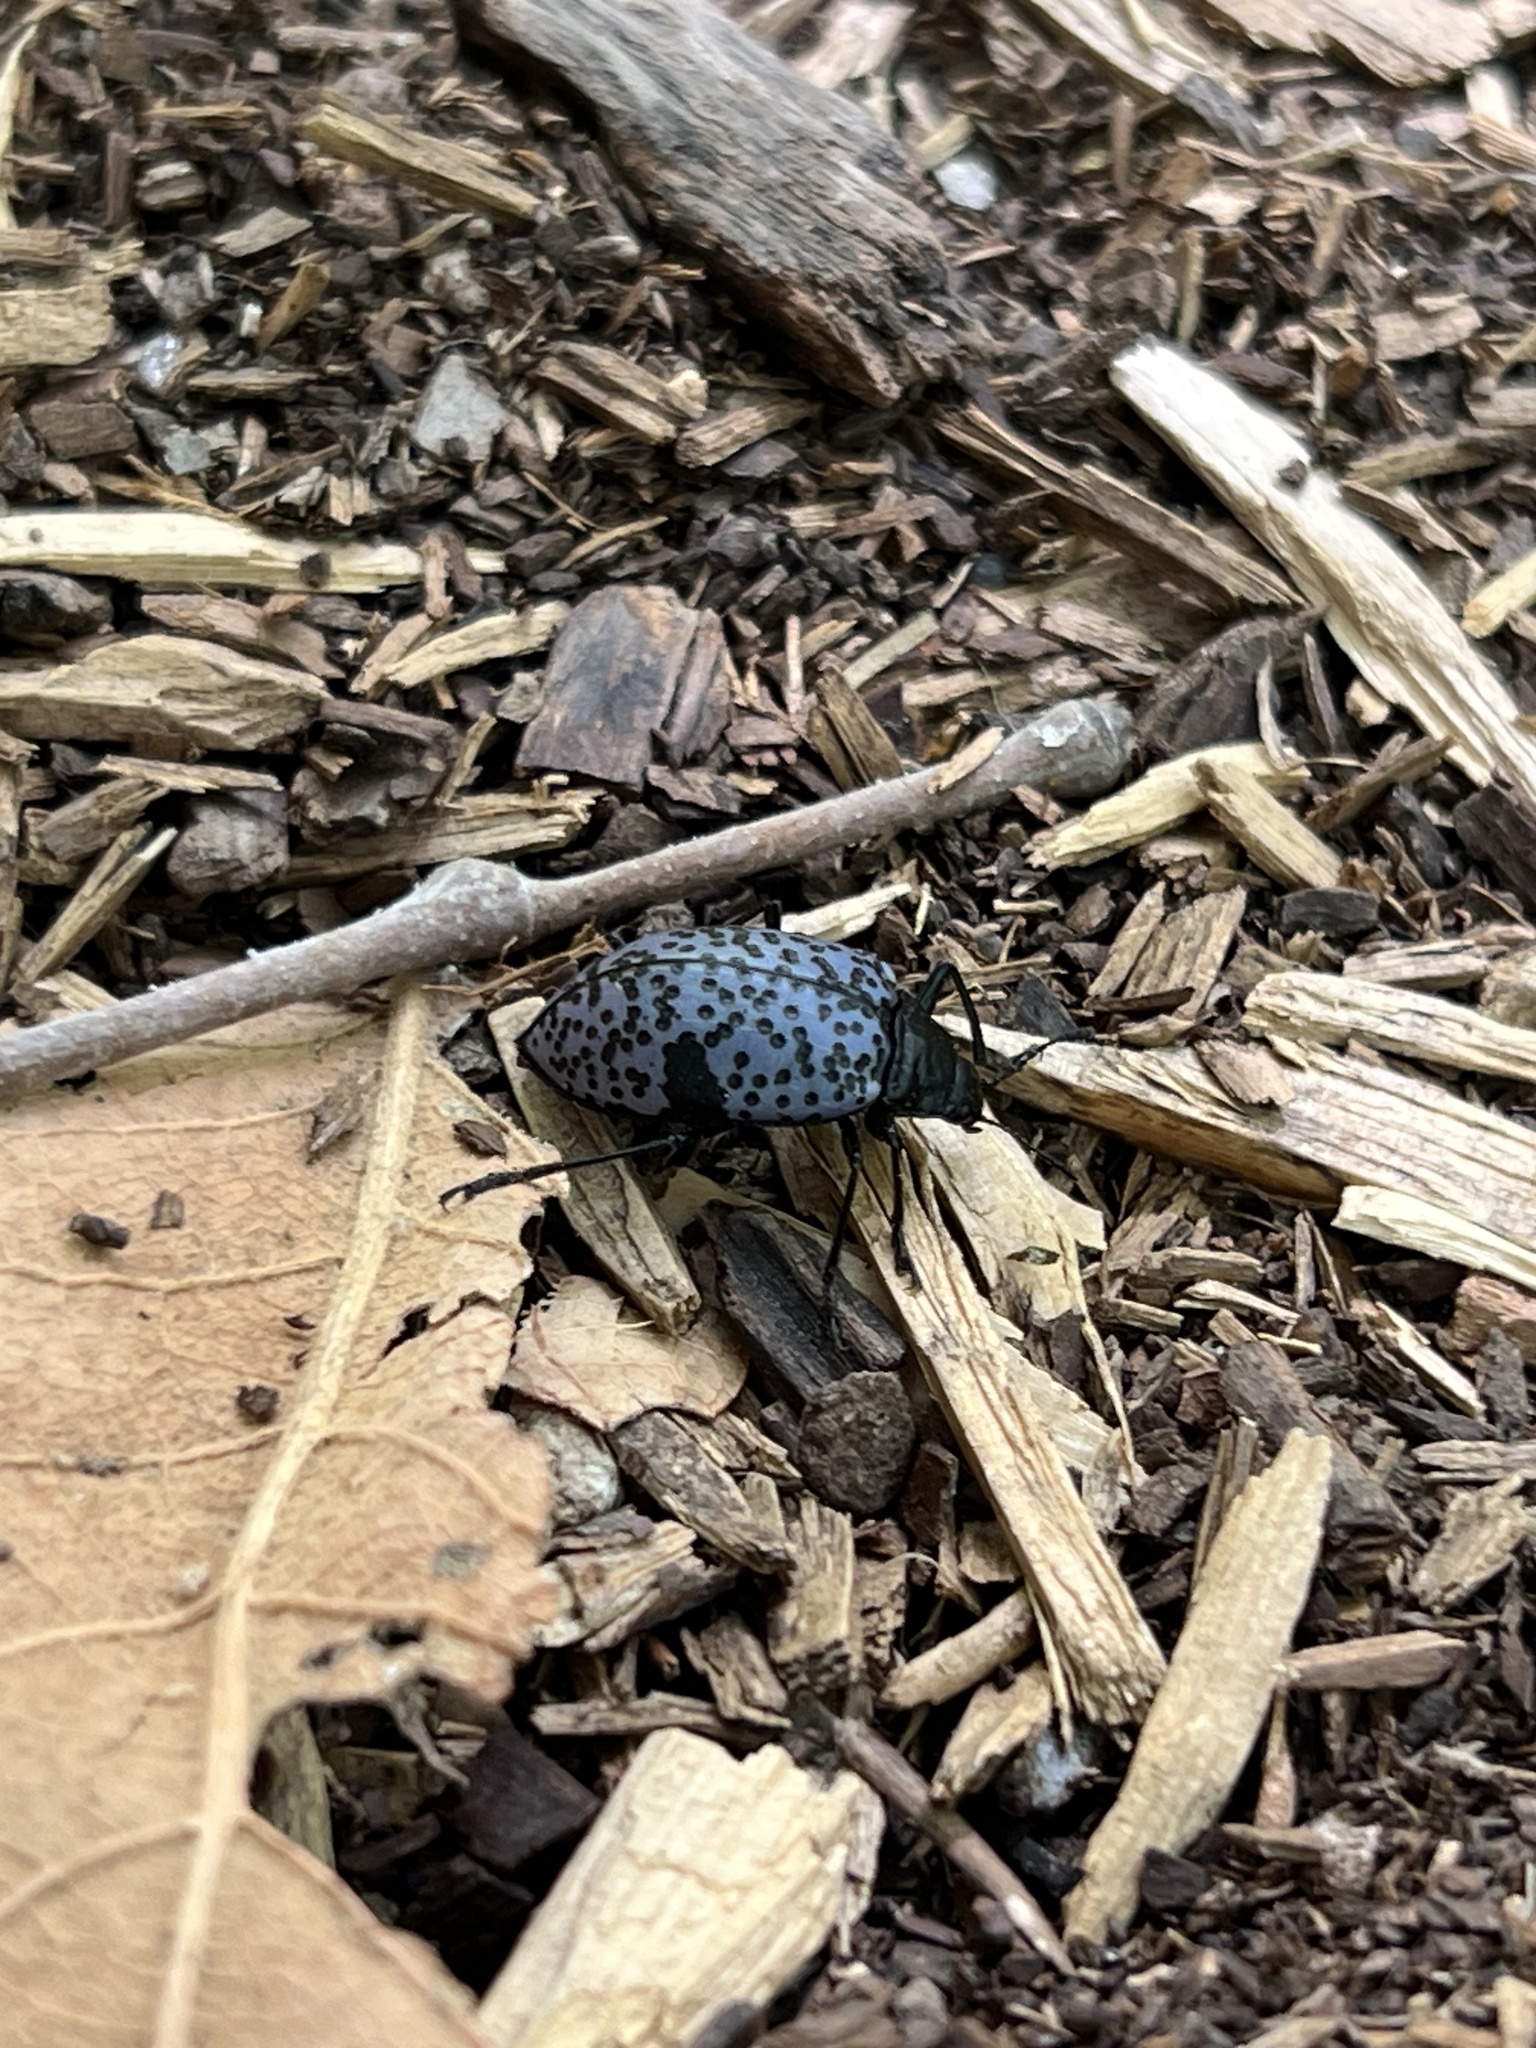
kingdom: Animalia
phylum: Arthropoda
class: Insecta
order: Coleoptera
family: Erotylidae
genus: Gibbifer
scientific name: Gibbifer californicus
